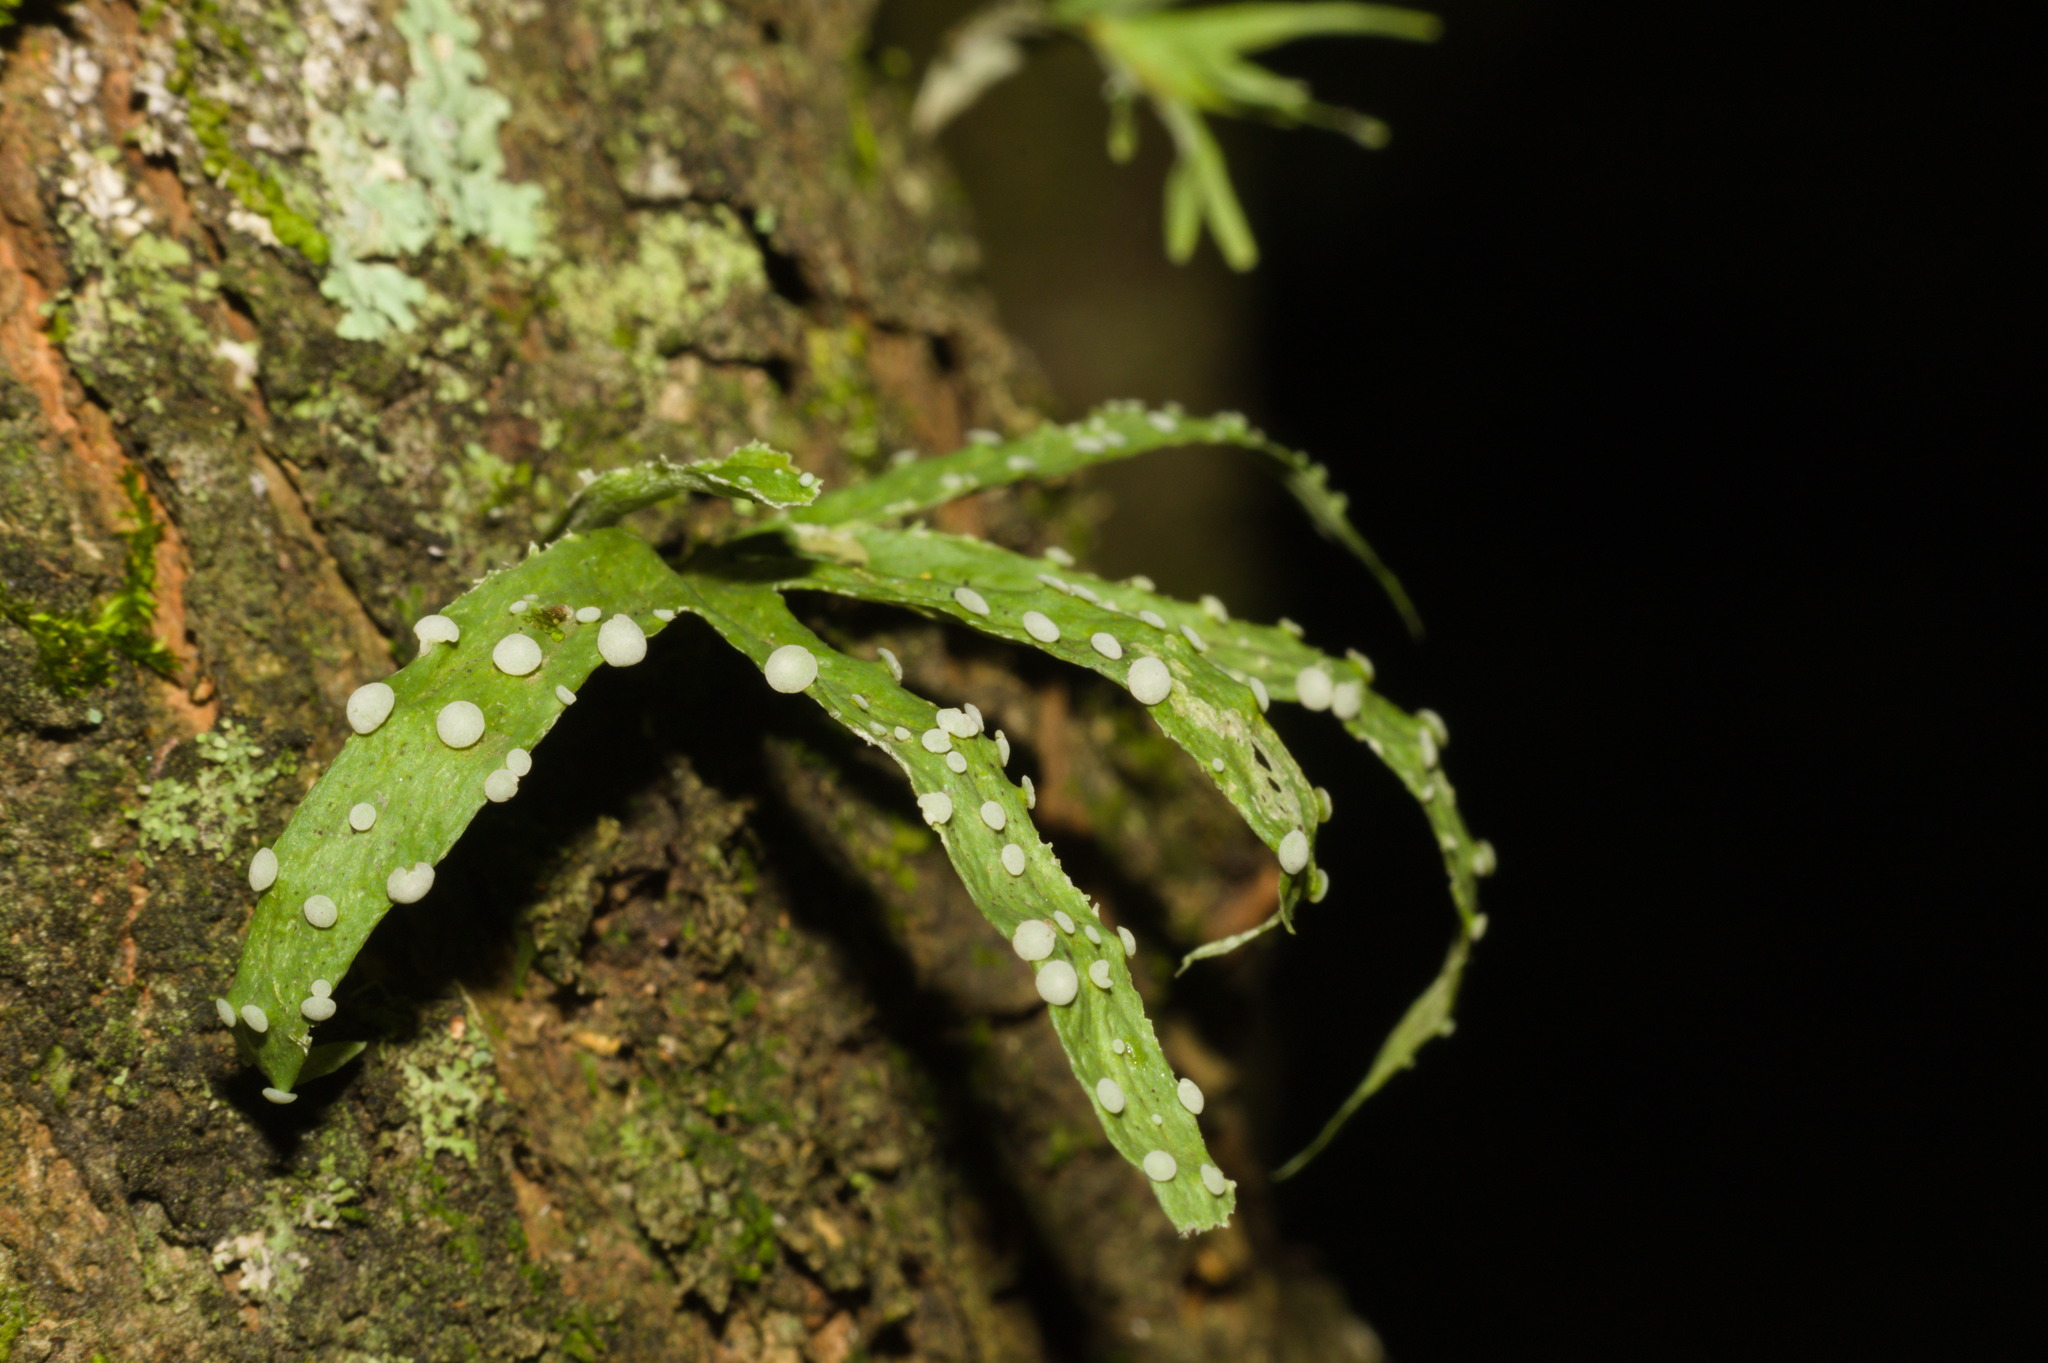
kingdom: Fungi
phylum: Ascomycota
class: Lecanoromycetes
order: Lecanorales
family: Ramalinaceae
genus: Ramalina
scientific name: Ramalina celastri
